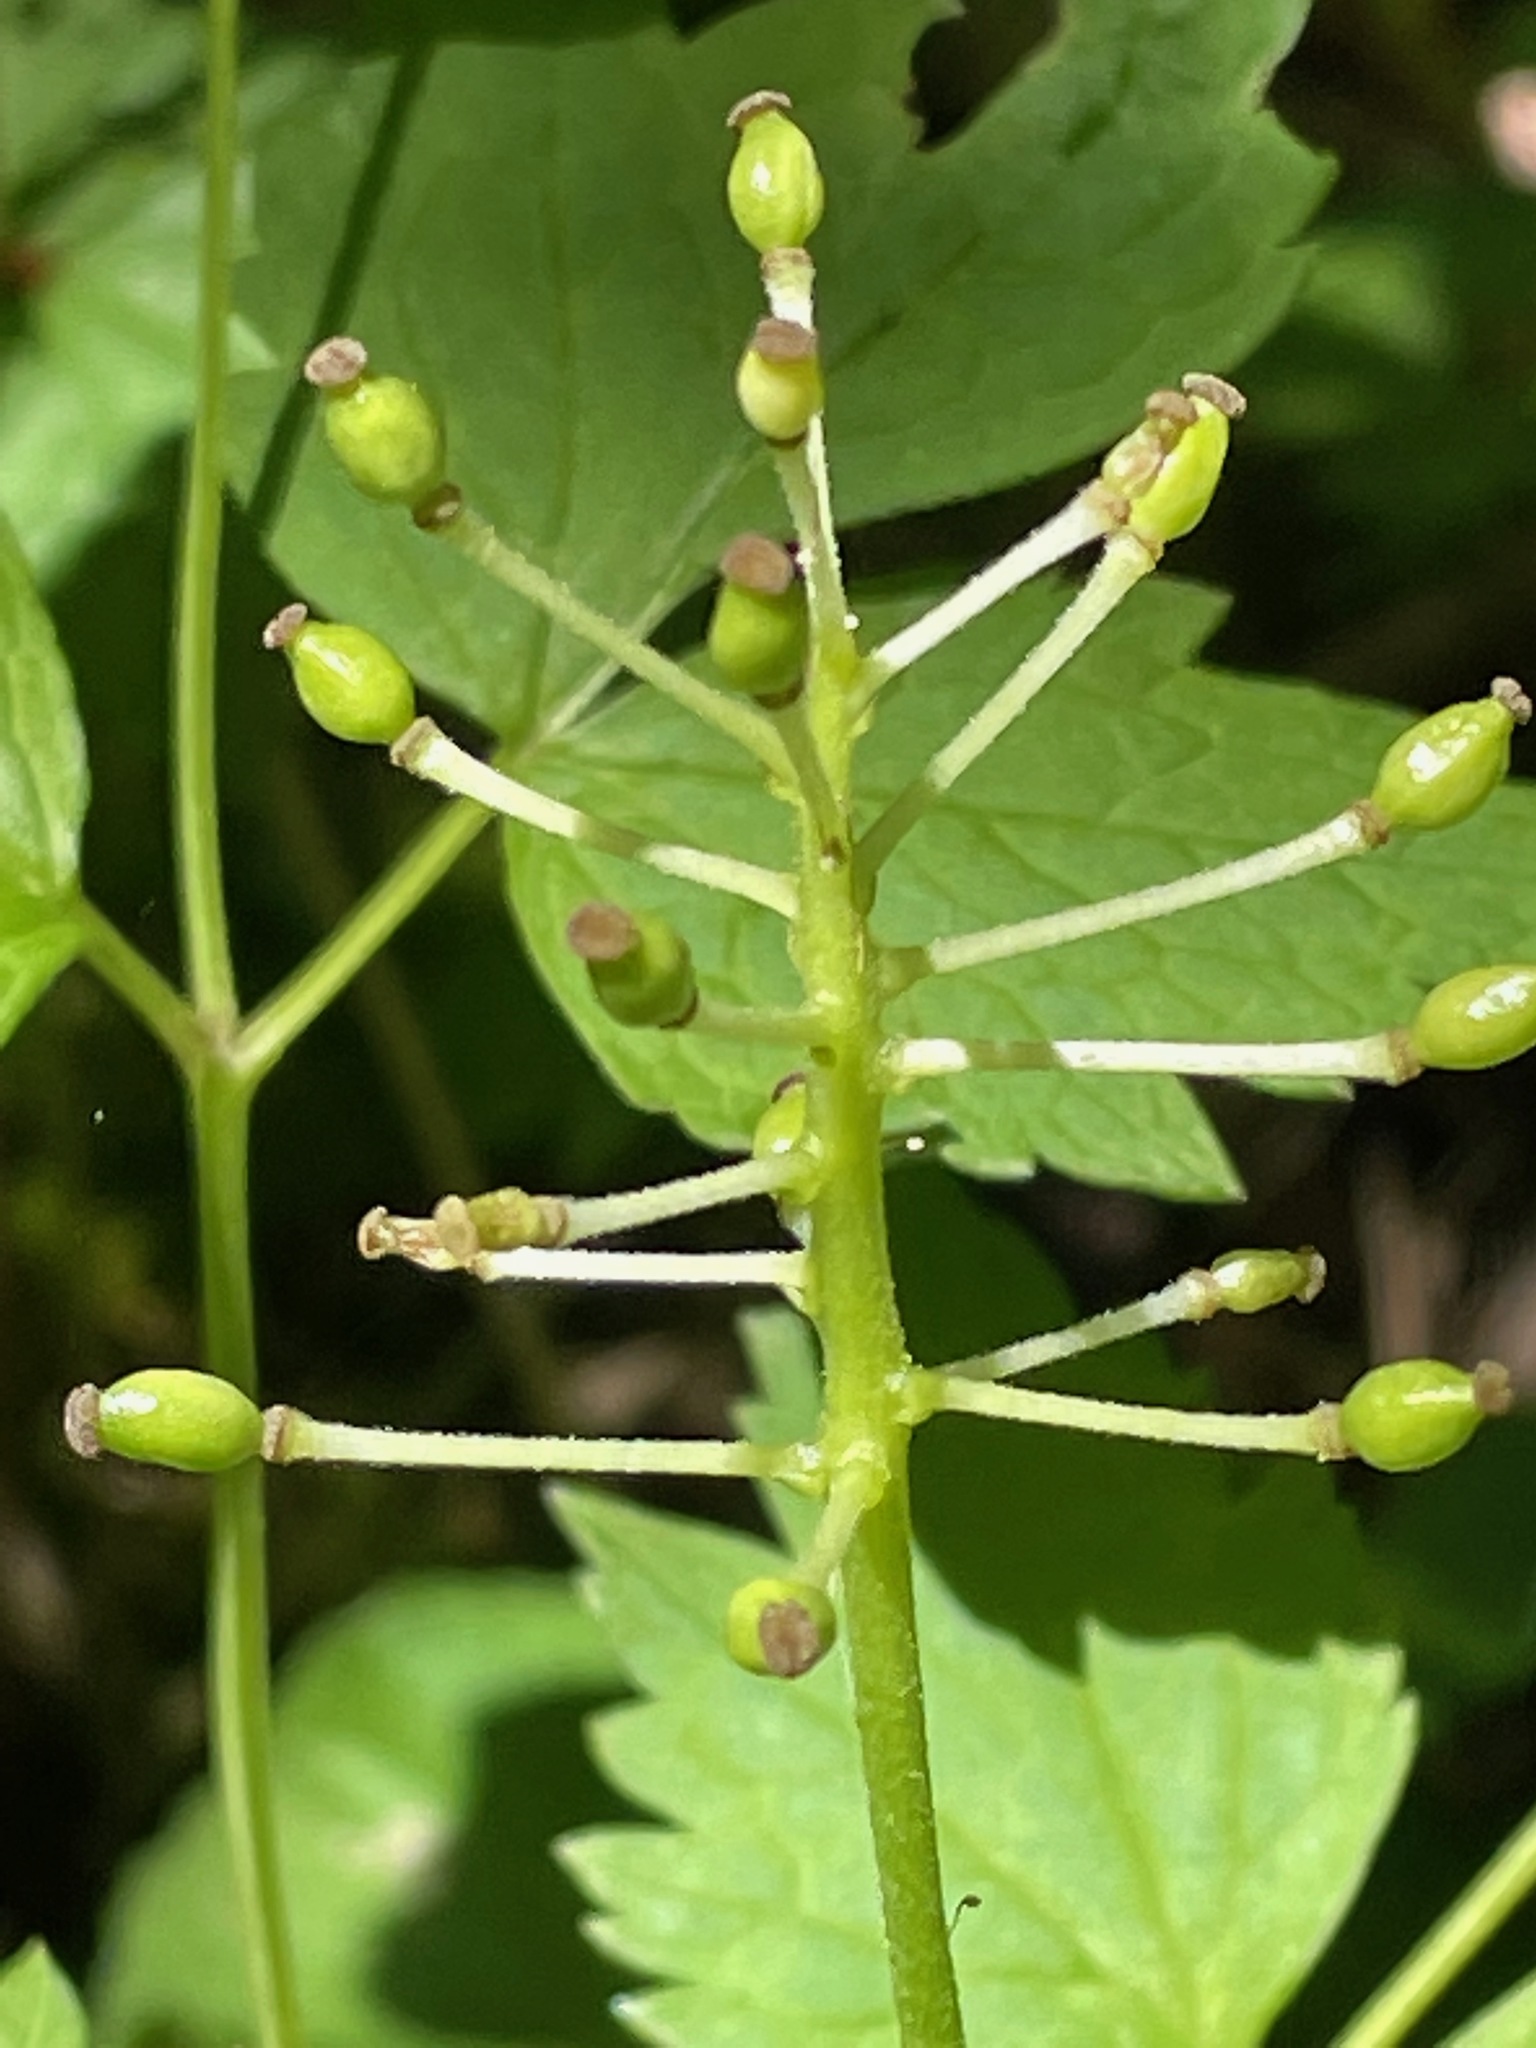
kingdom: Plantae
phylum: Tracheophyta
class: Magnoliopsida
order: Ranunculales
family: Ranunculaceae
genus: Actaea
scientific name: Actaea rubra
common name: Red baneberry
